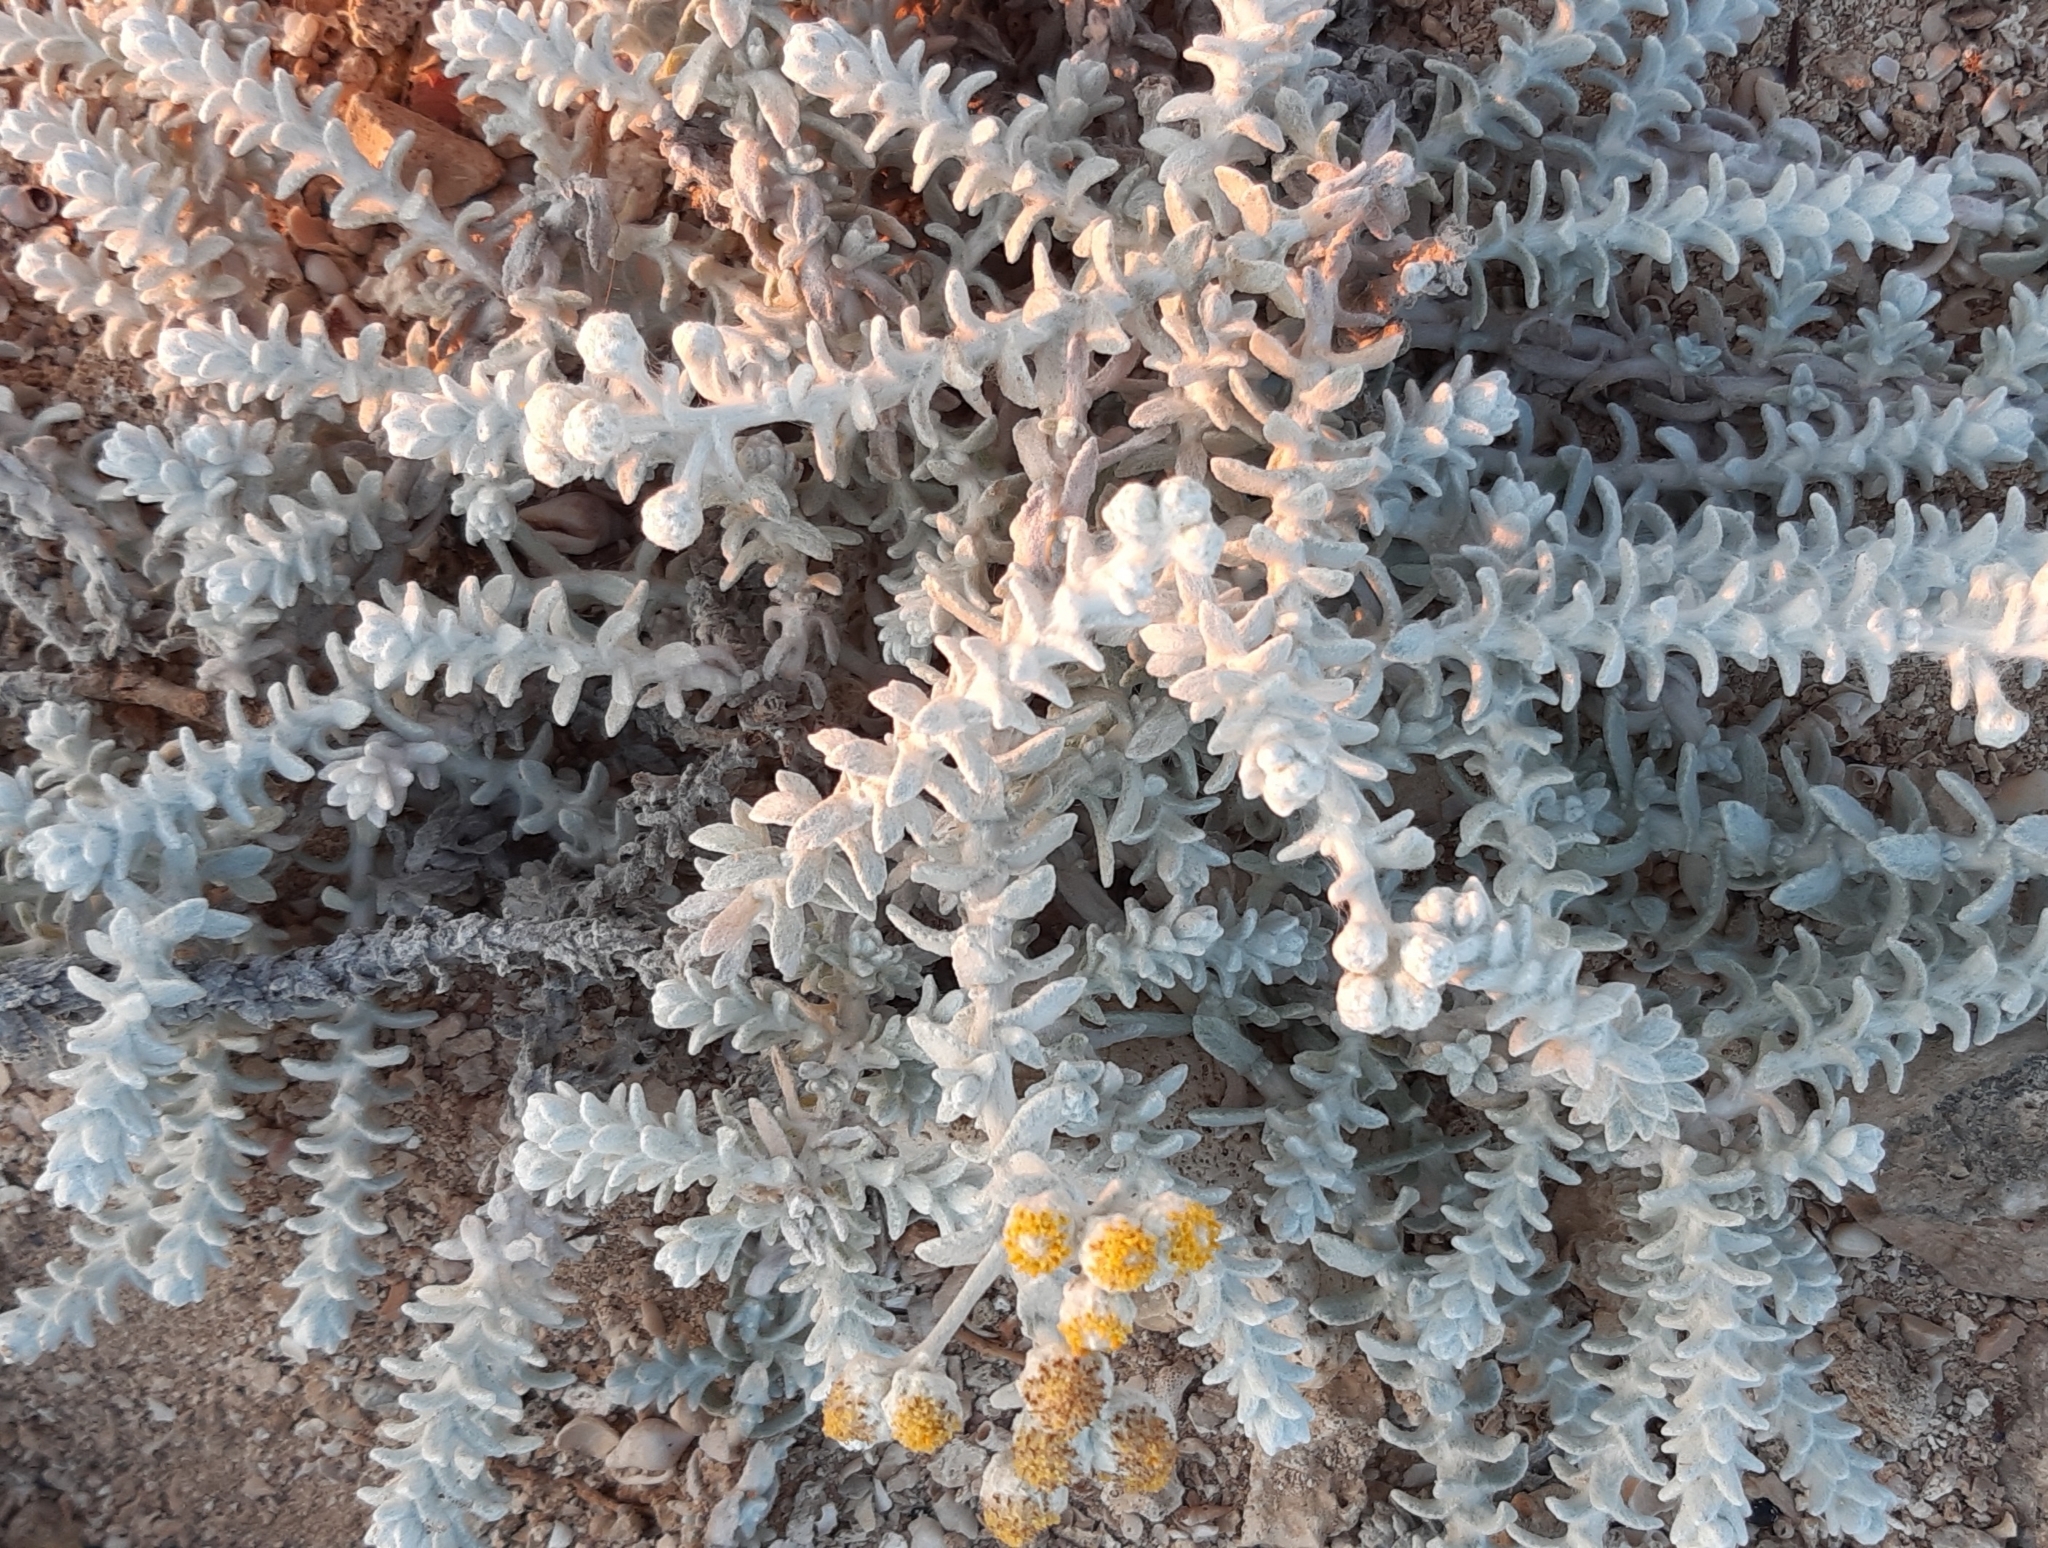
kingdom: Plantae
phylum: Tracheophyta
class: Magnoliopsida
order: Asterales
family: Asteraceae
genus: Achillea
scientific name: Achillea maritima
